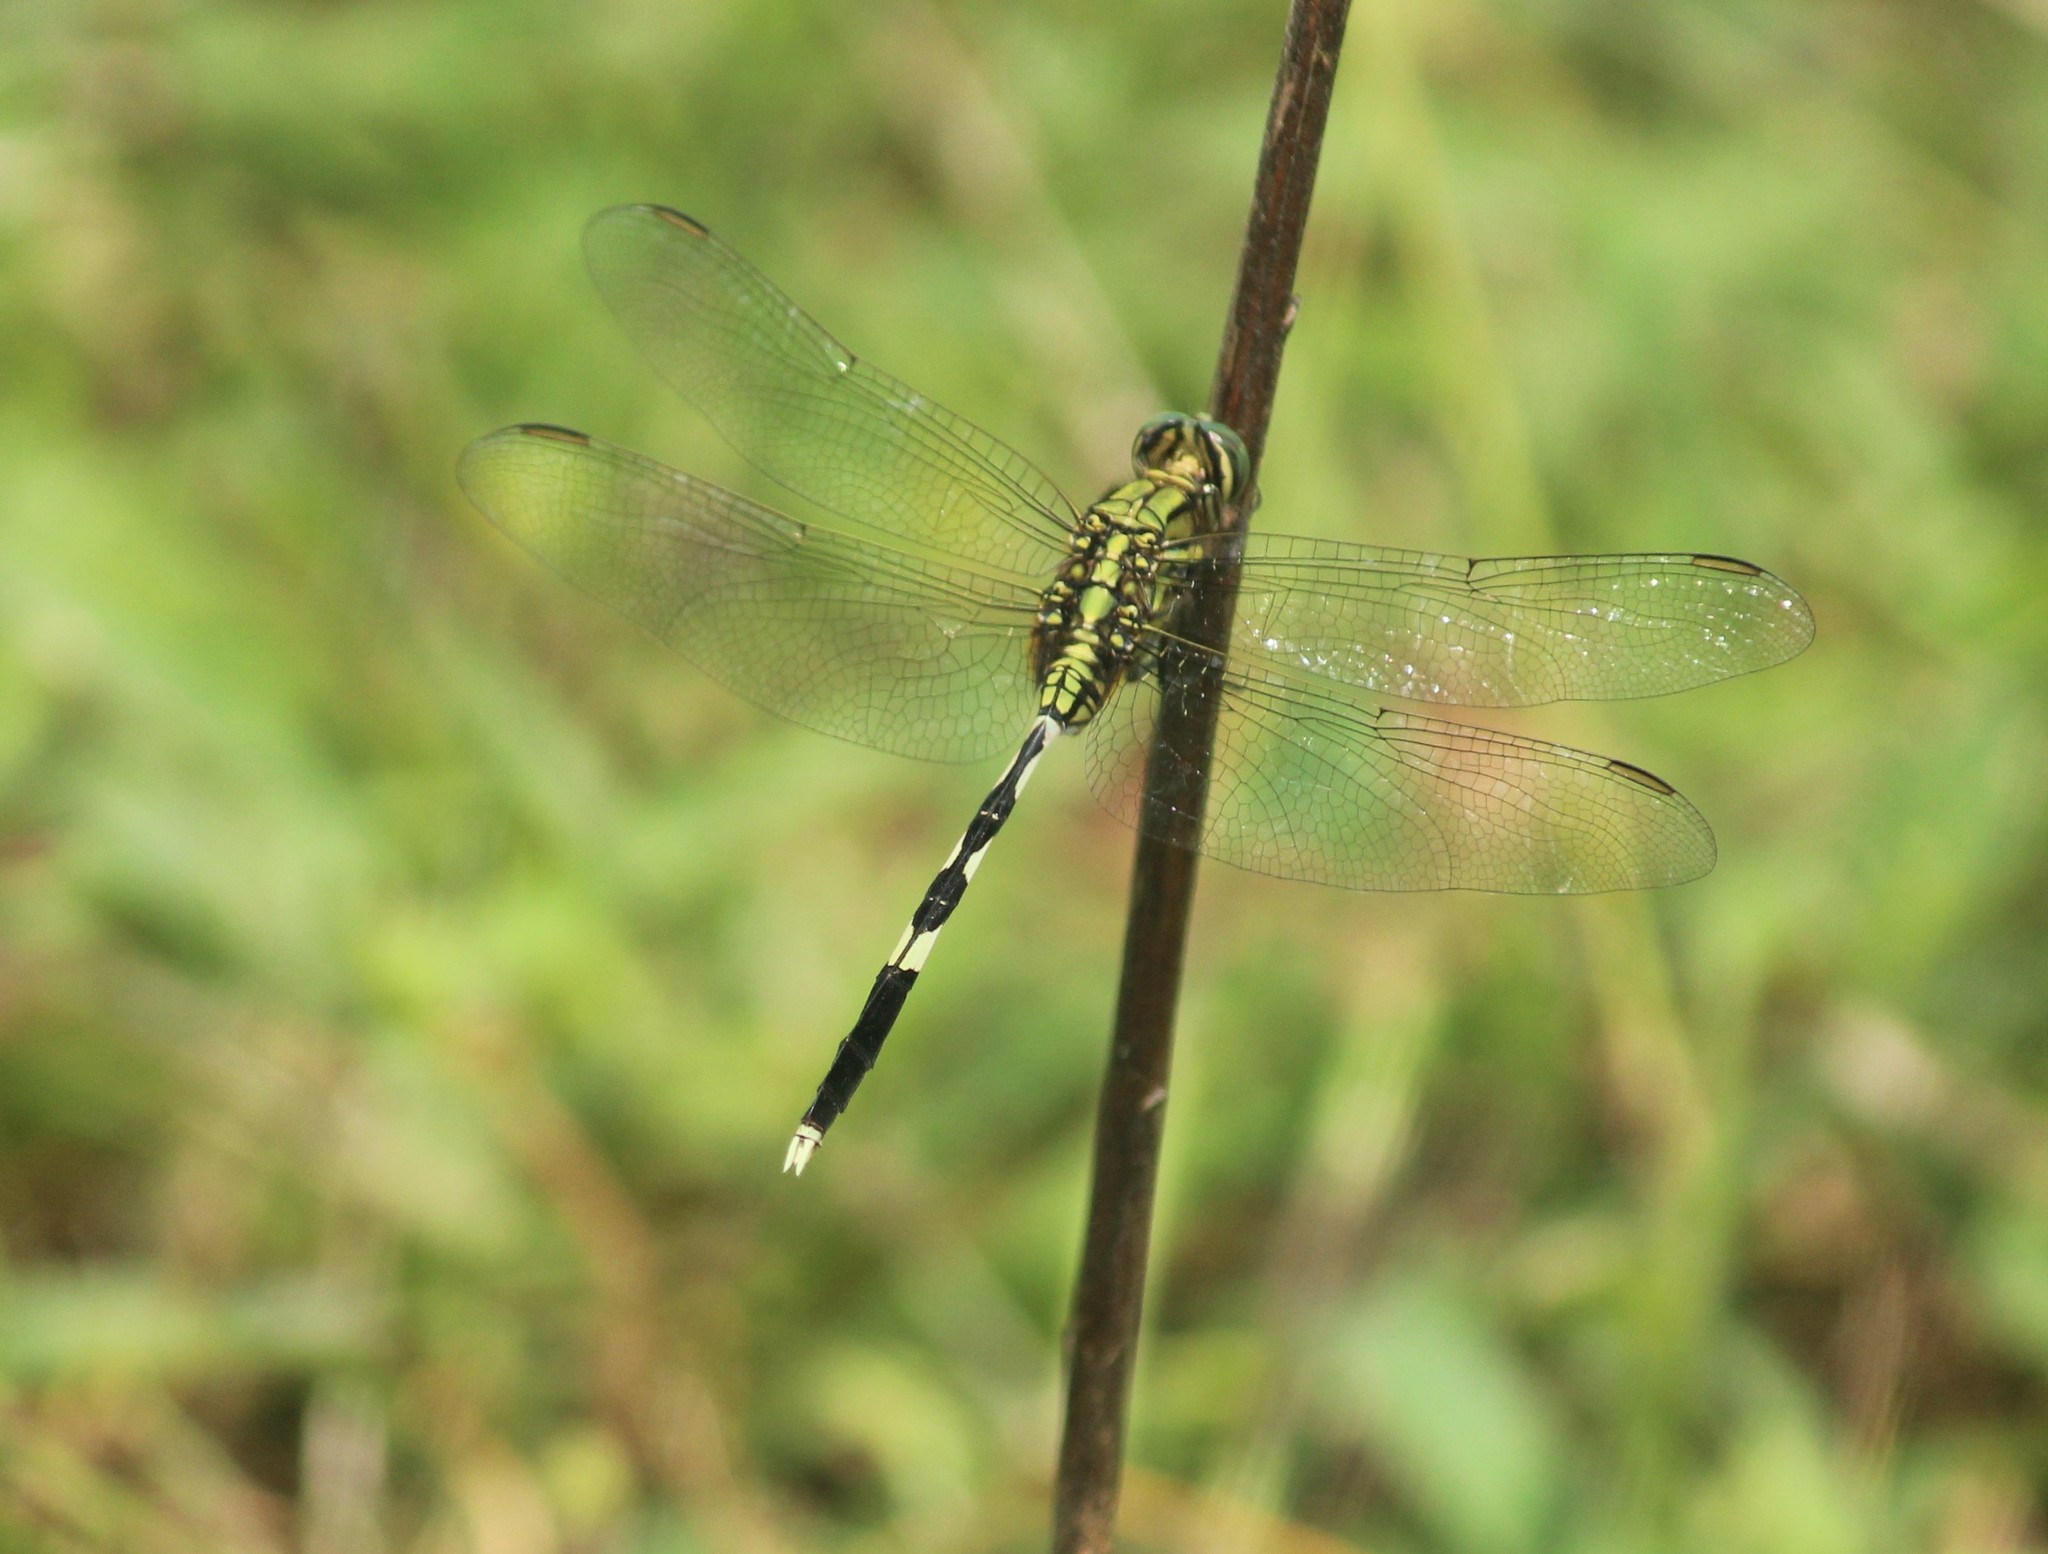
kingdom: Animalia
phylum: Arthropoda
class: Insecta
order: Odonata
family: Libellulidae
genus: Orthetrum
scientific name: Orthetrum sabina
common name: Slender skimmer
